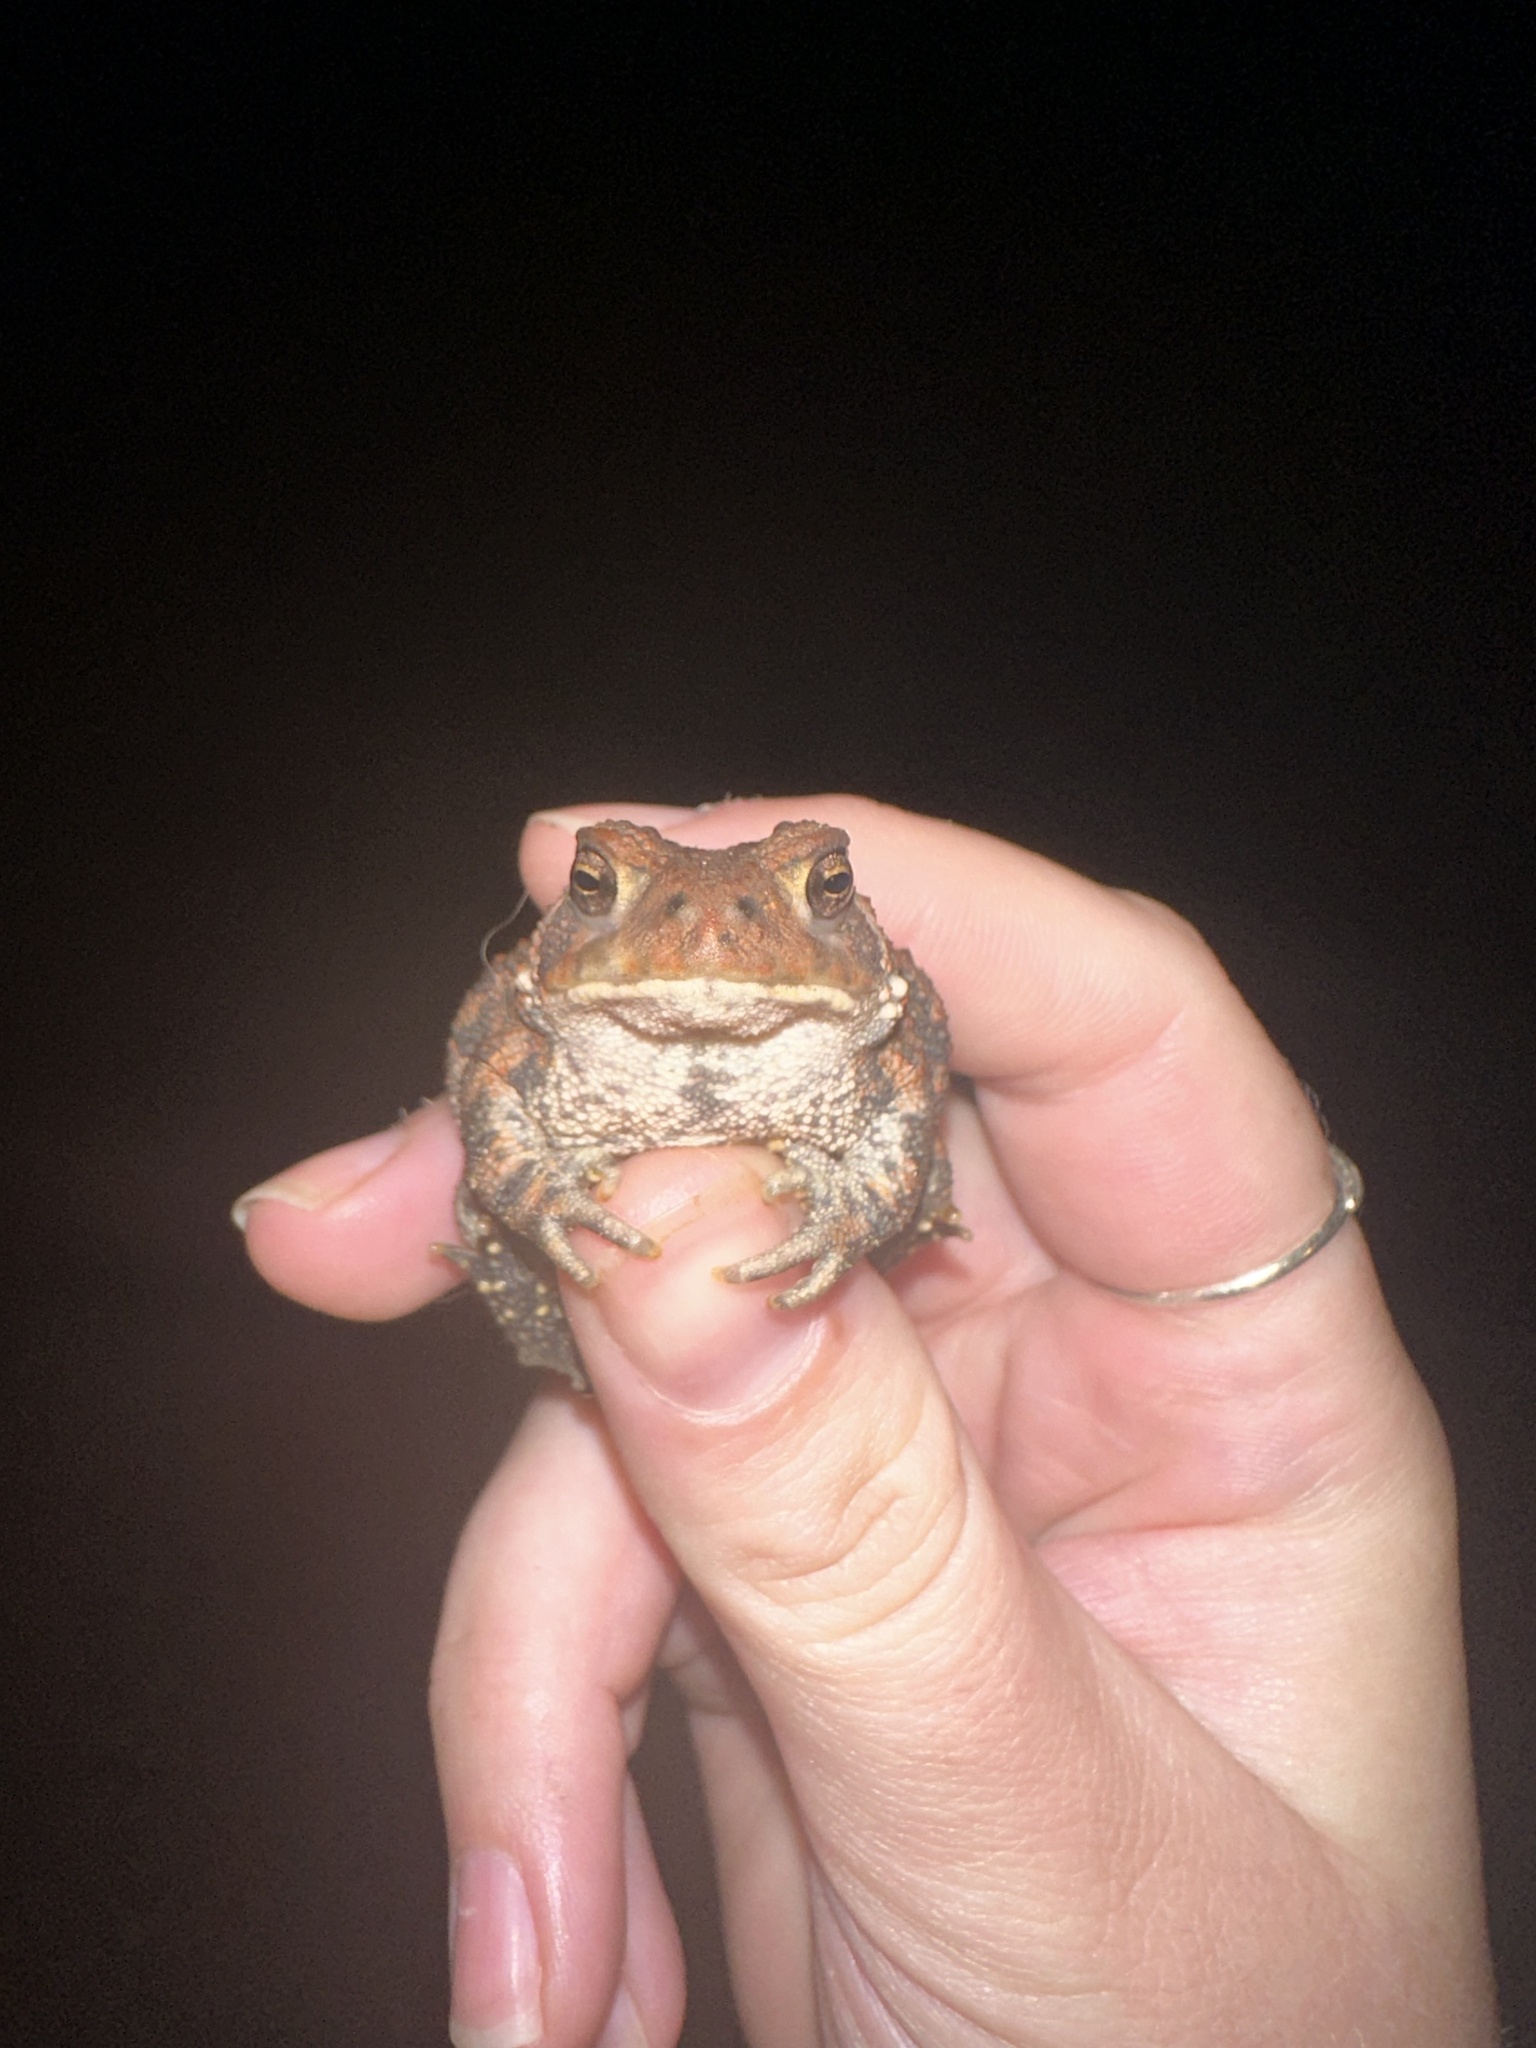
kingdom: Animalia
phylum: Chordata
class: Amphibia
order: Anura
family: Bufonidae
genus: Anaxyrus
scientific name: Anaxyrus americanus
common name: American toad
